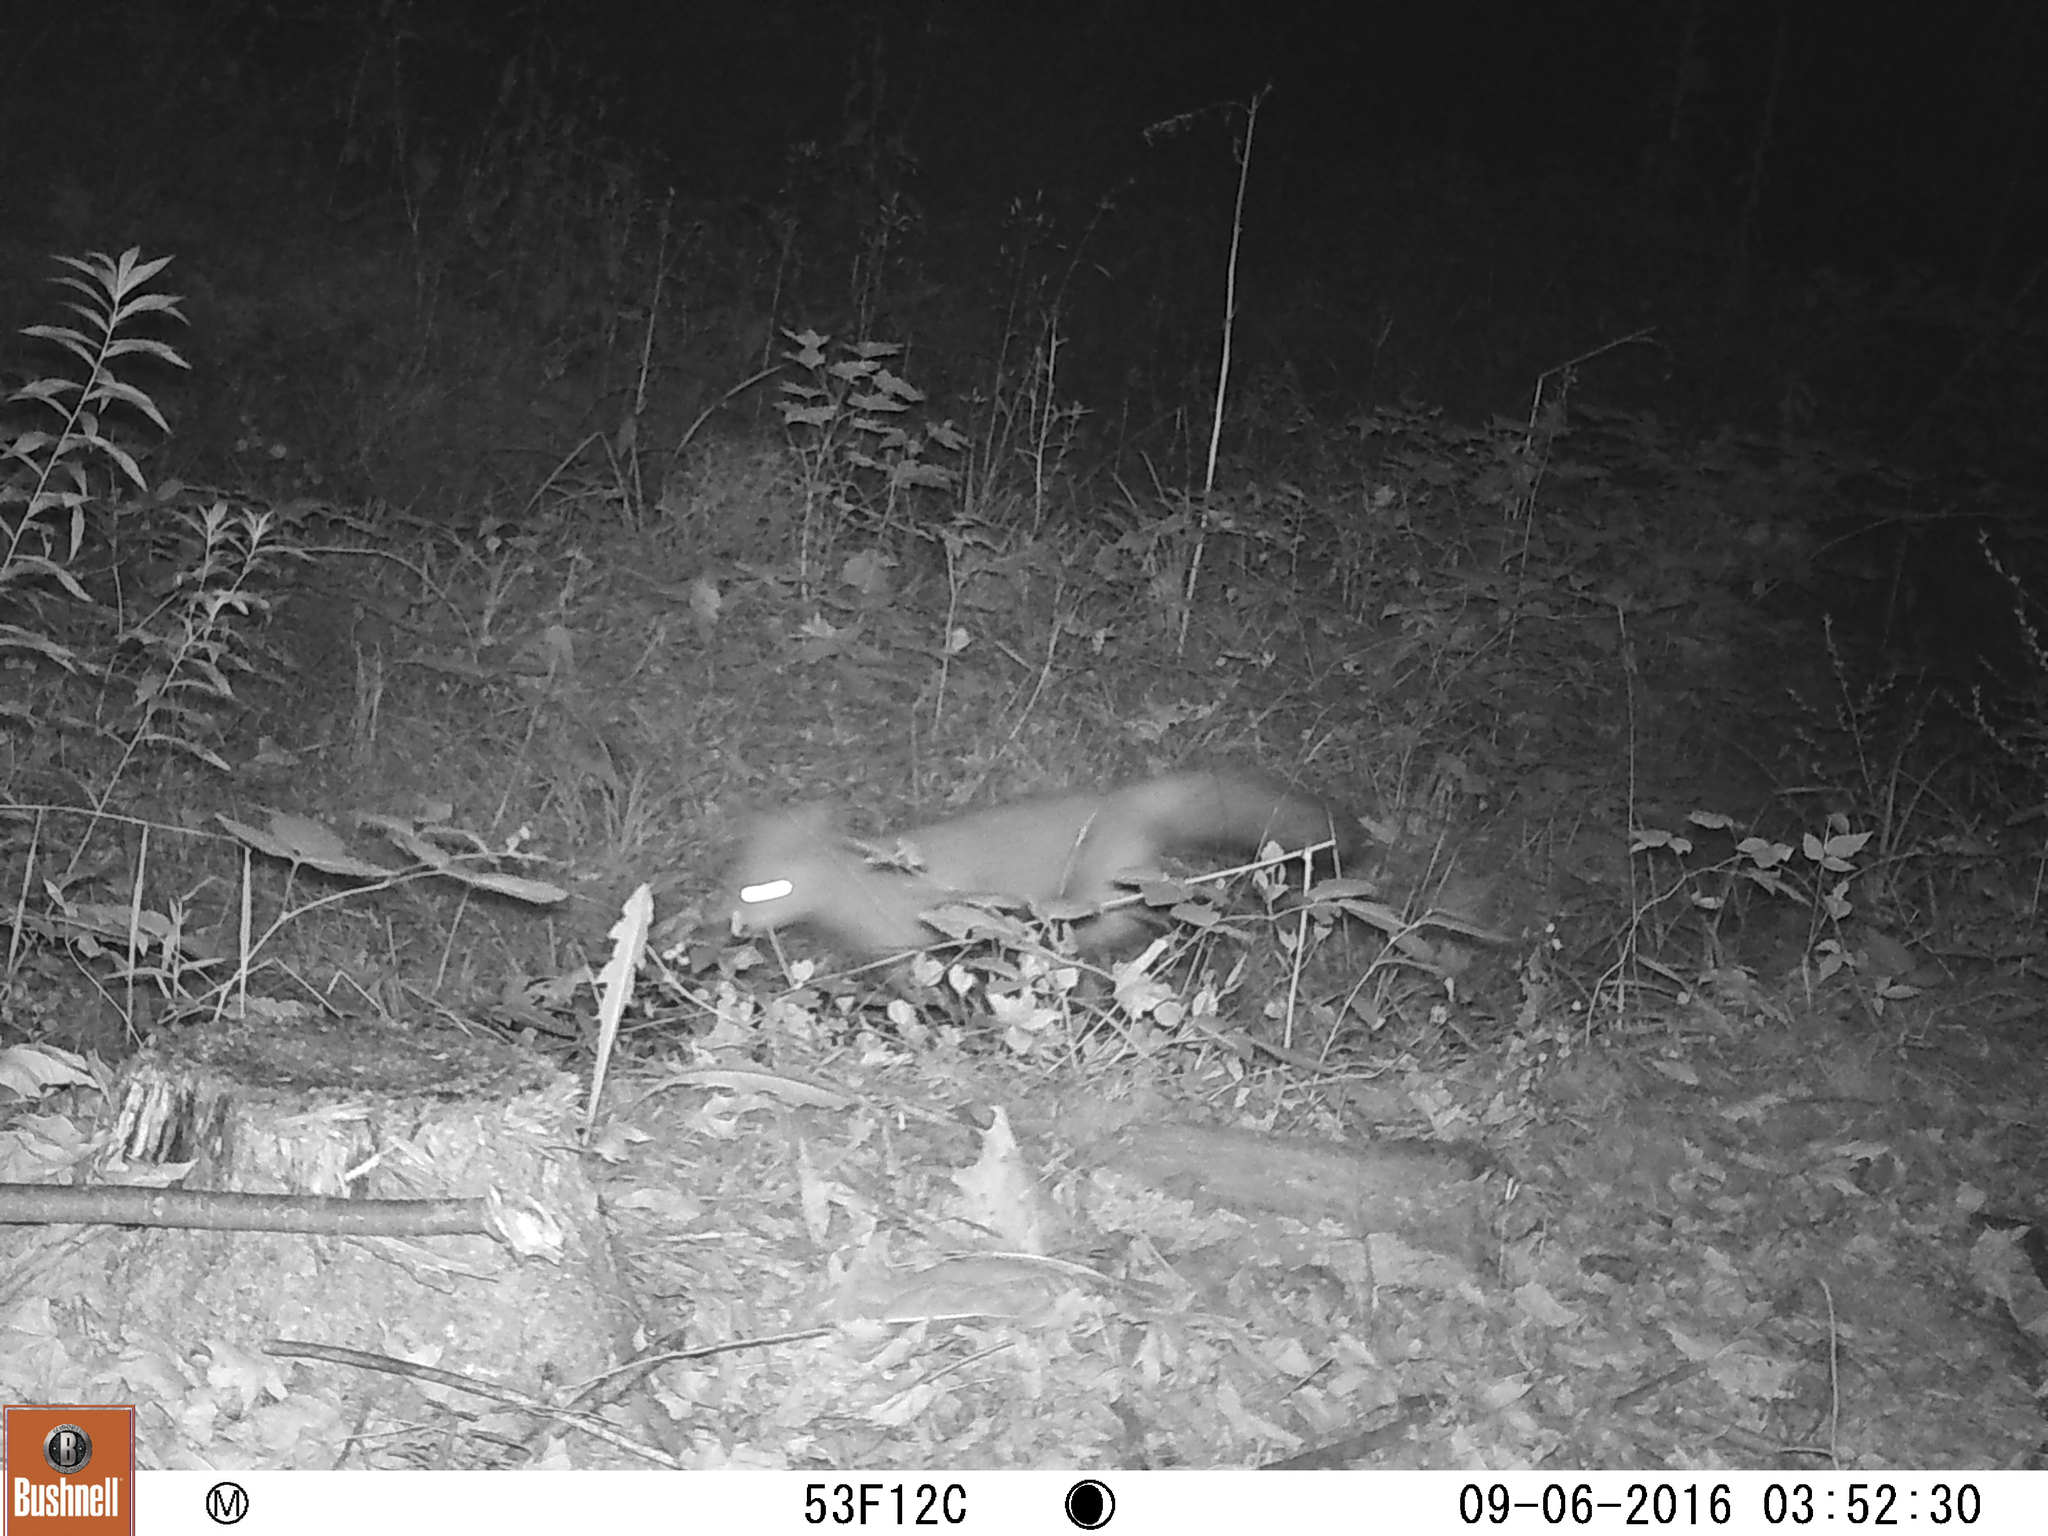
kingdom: Animalia
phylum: Chordata
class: Mammalia
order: Carnivora
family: Canidae
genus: Vulpes
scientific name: Vulpes vulpes
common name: Red fox
